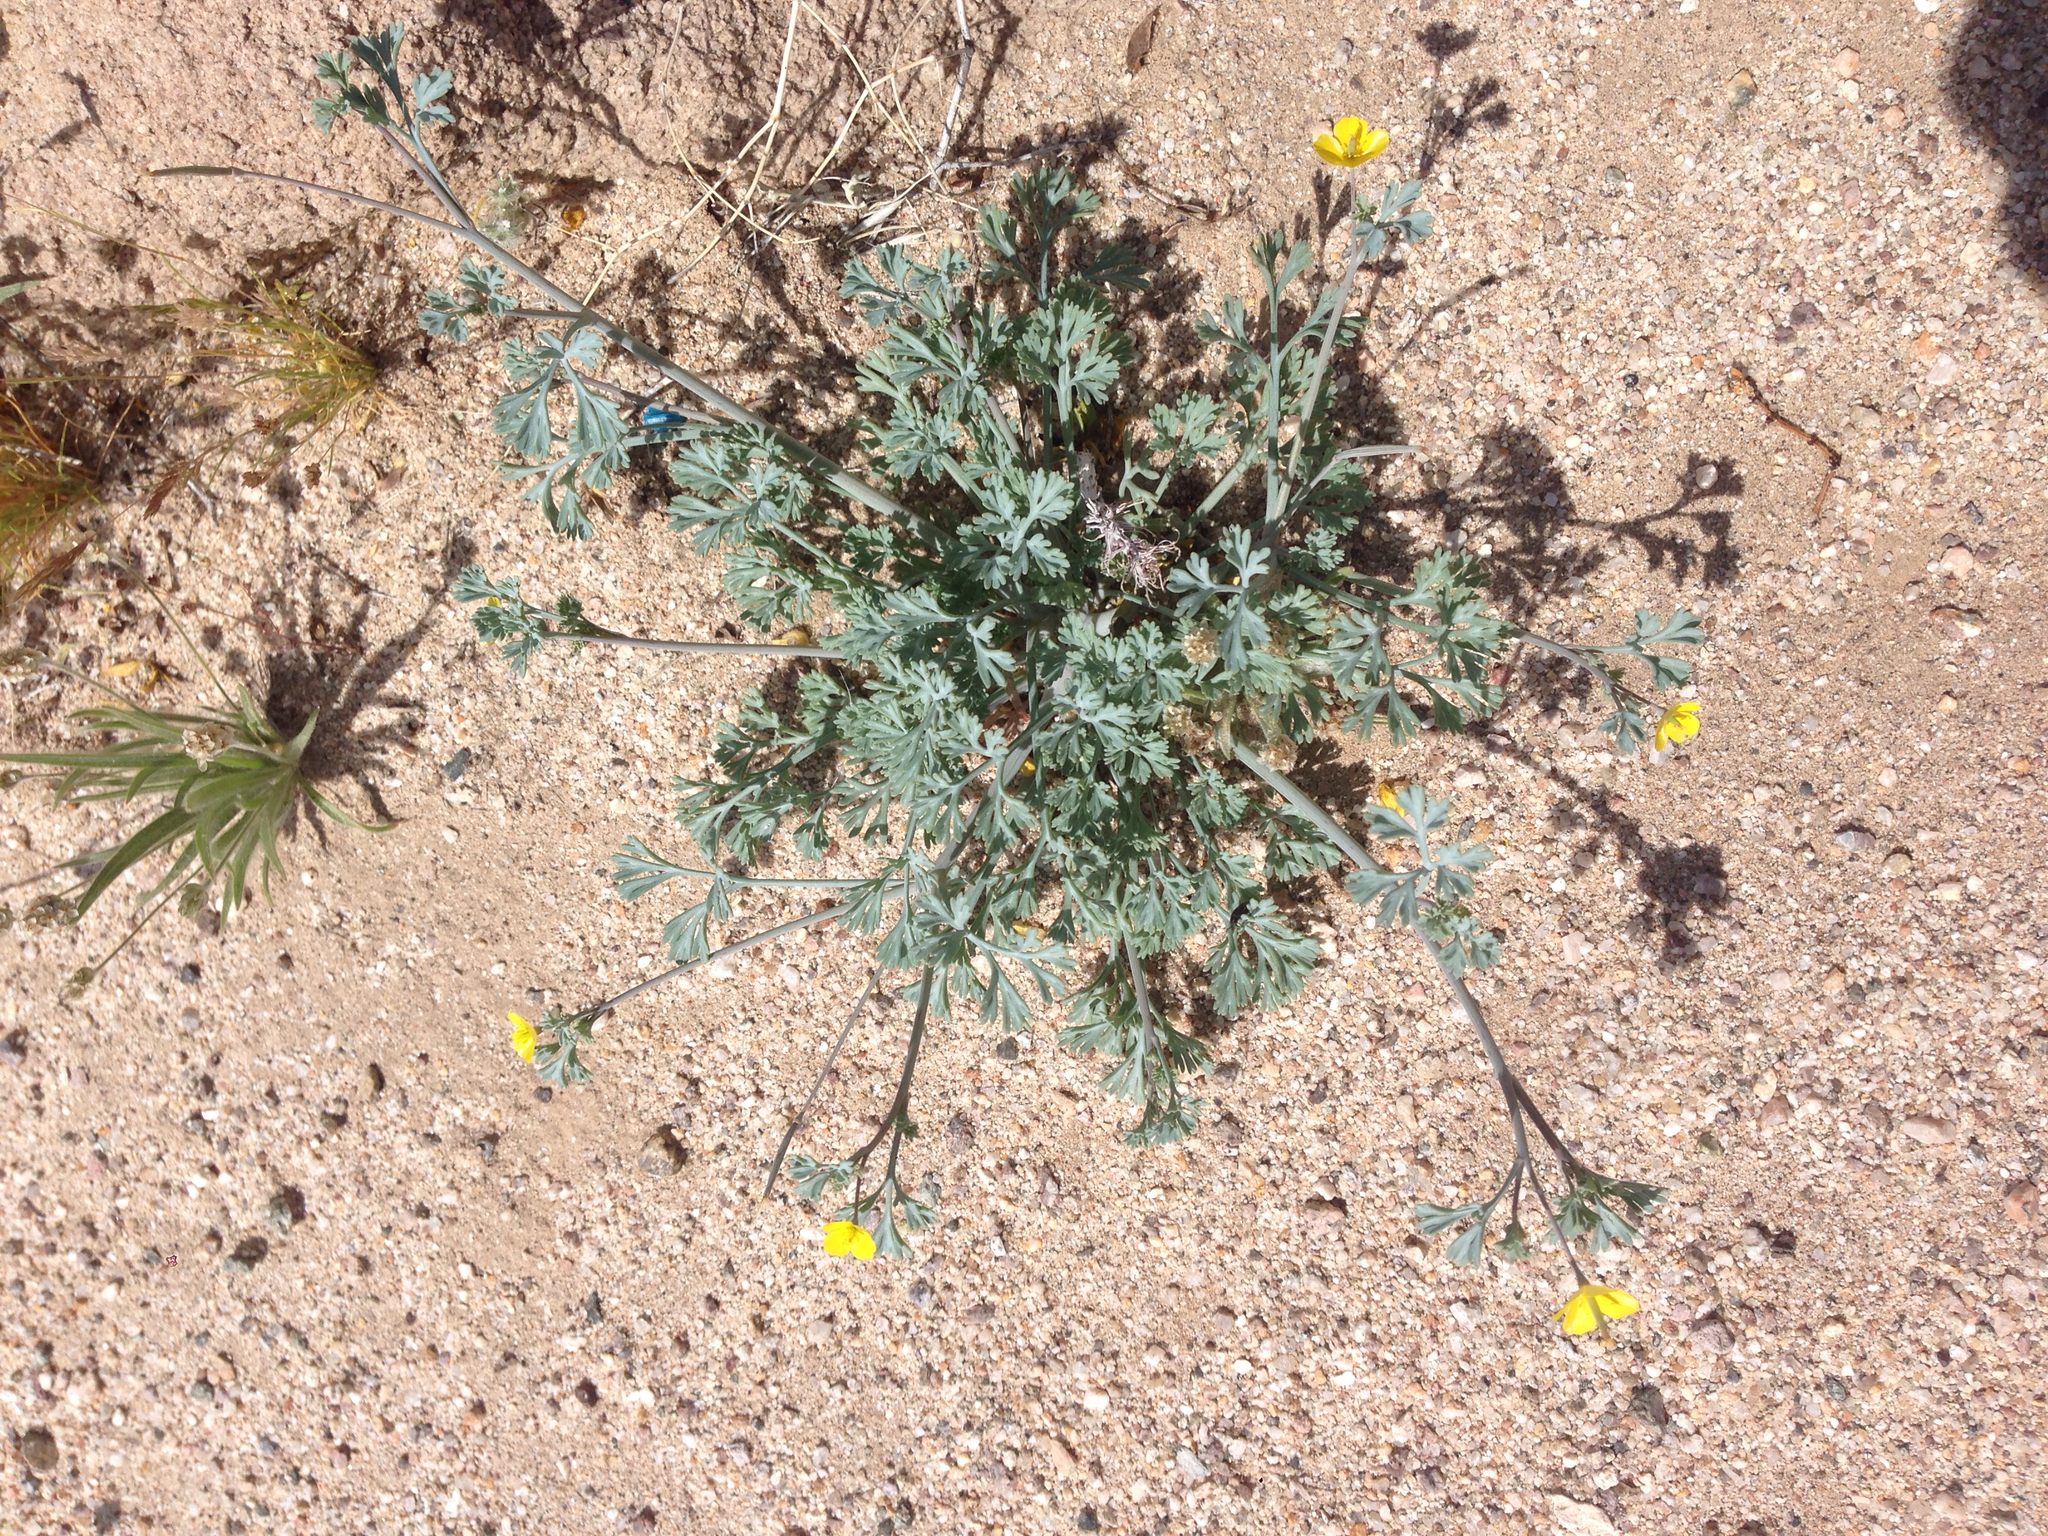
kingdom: Plantae
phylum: Tracheophyta
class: Magnoliopsida
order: Ranunculales
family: Papaveraceae
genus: Eschscholzia
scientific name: Eschscholzia minutiflora
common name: Small-flower california-poppy
